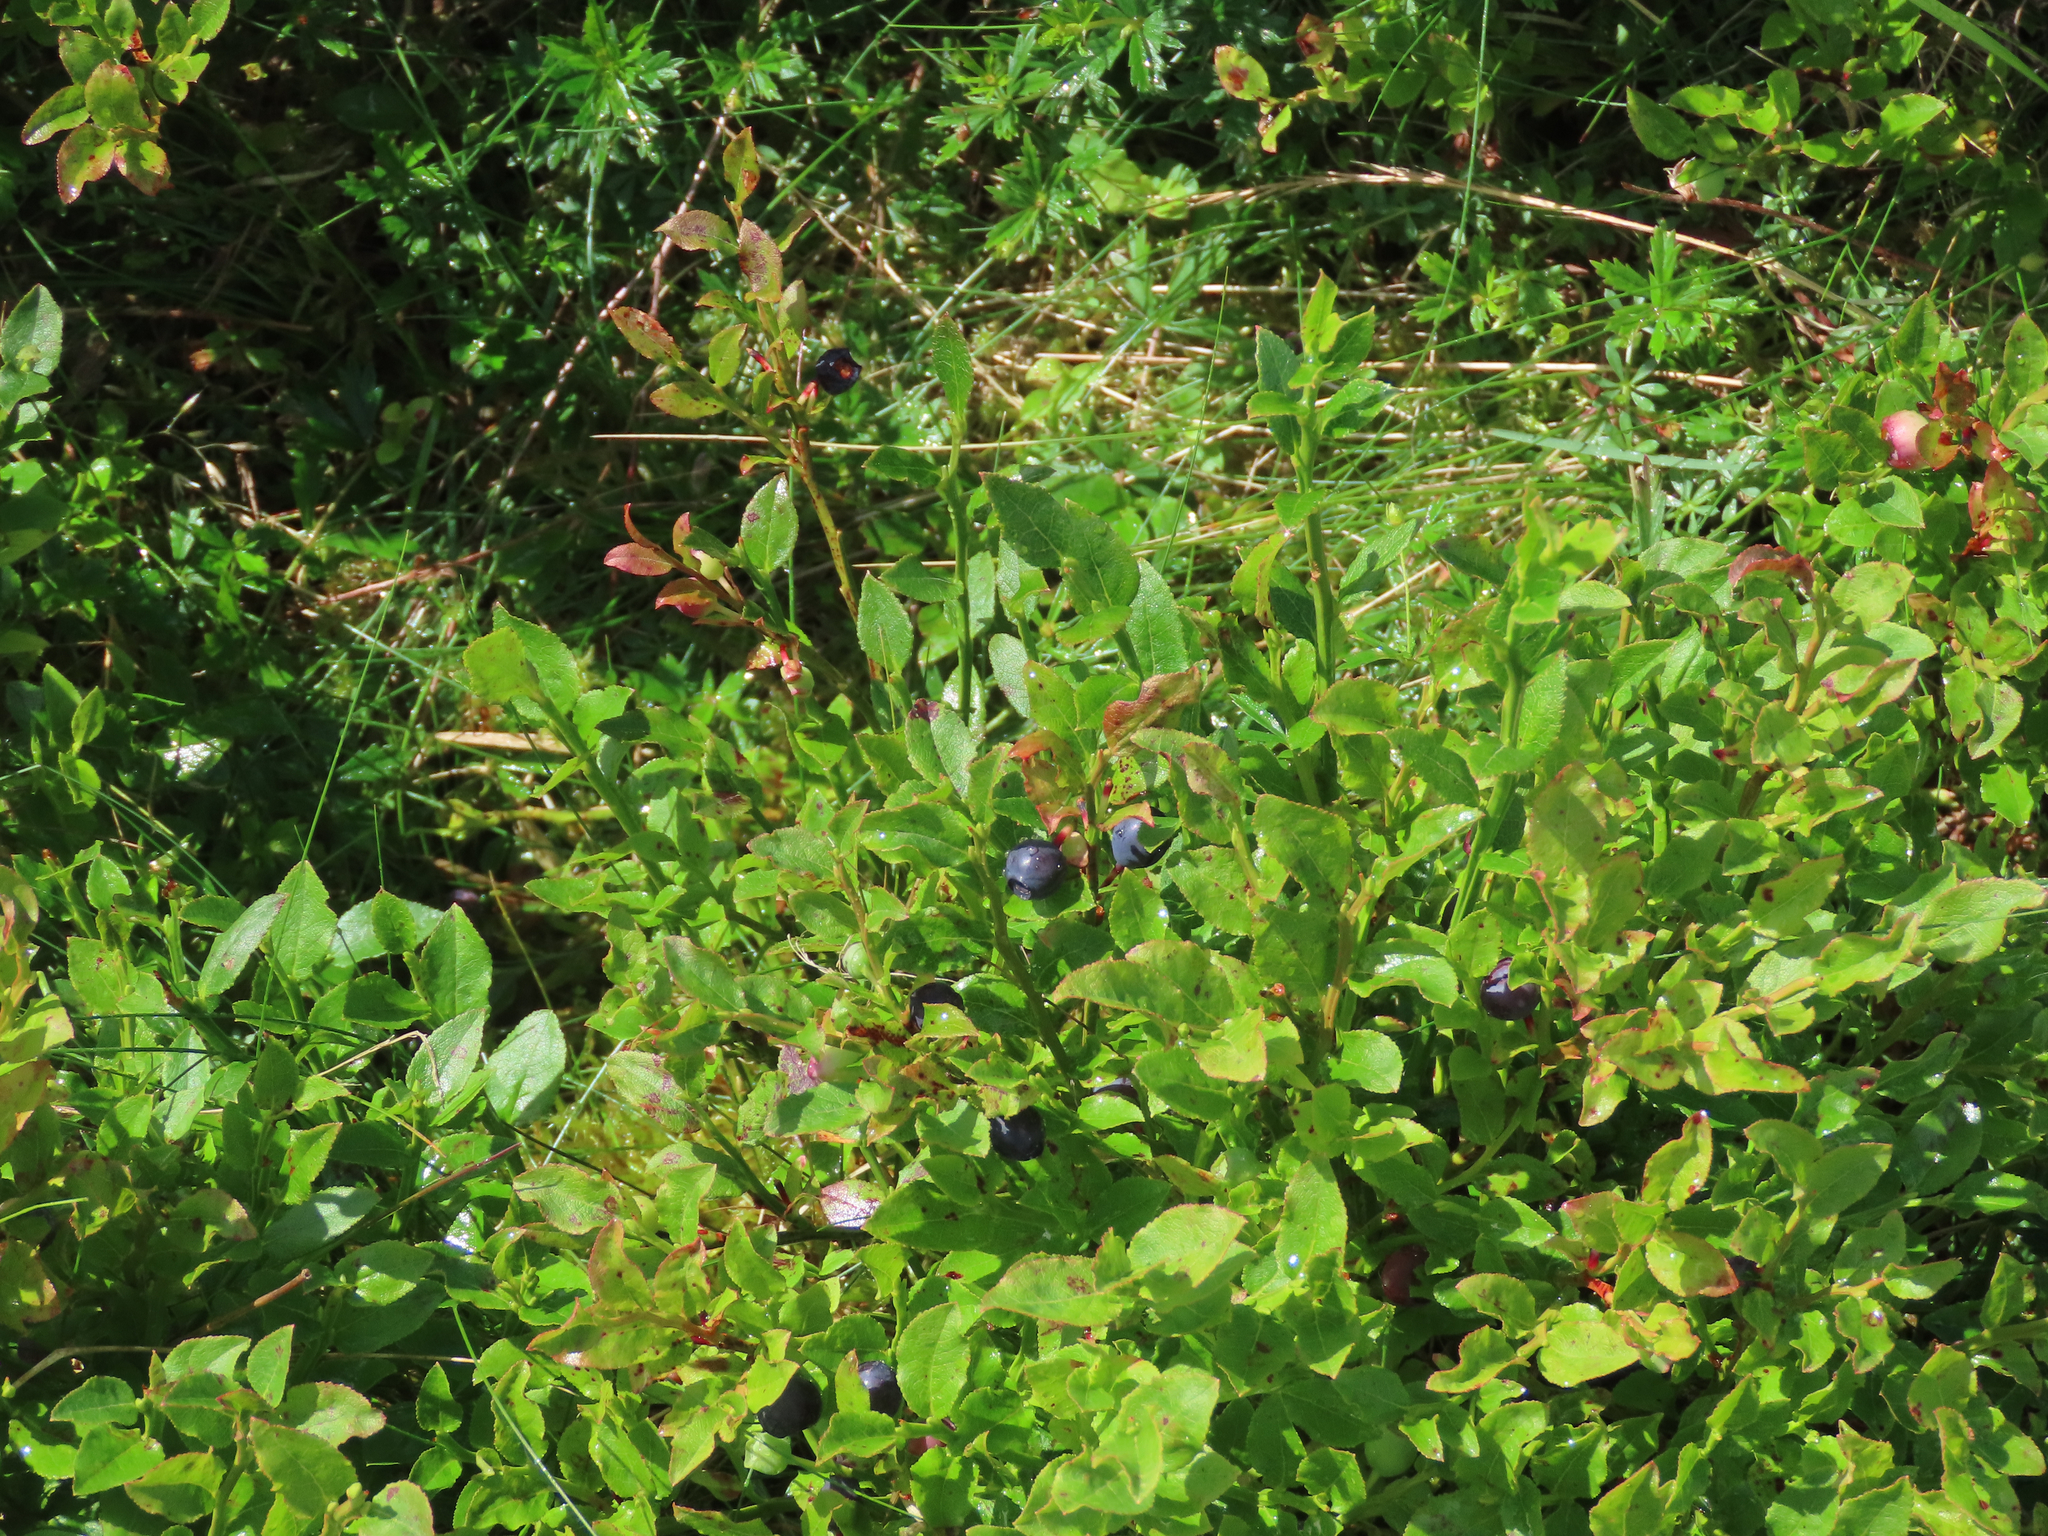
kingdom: Plantae
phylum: Tracheophyta
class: Magnoliopsida
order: Ericales
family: Ericaceae
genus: Vaccinium
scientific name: Vaccinium myrtillus
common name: Bilberry
